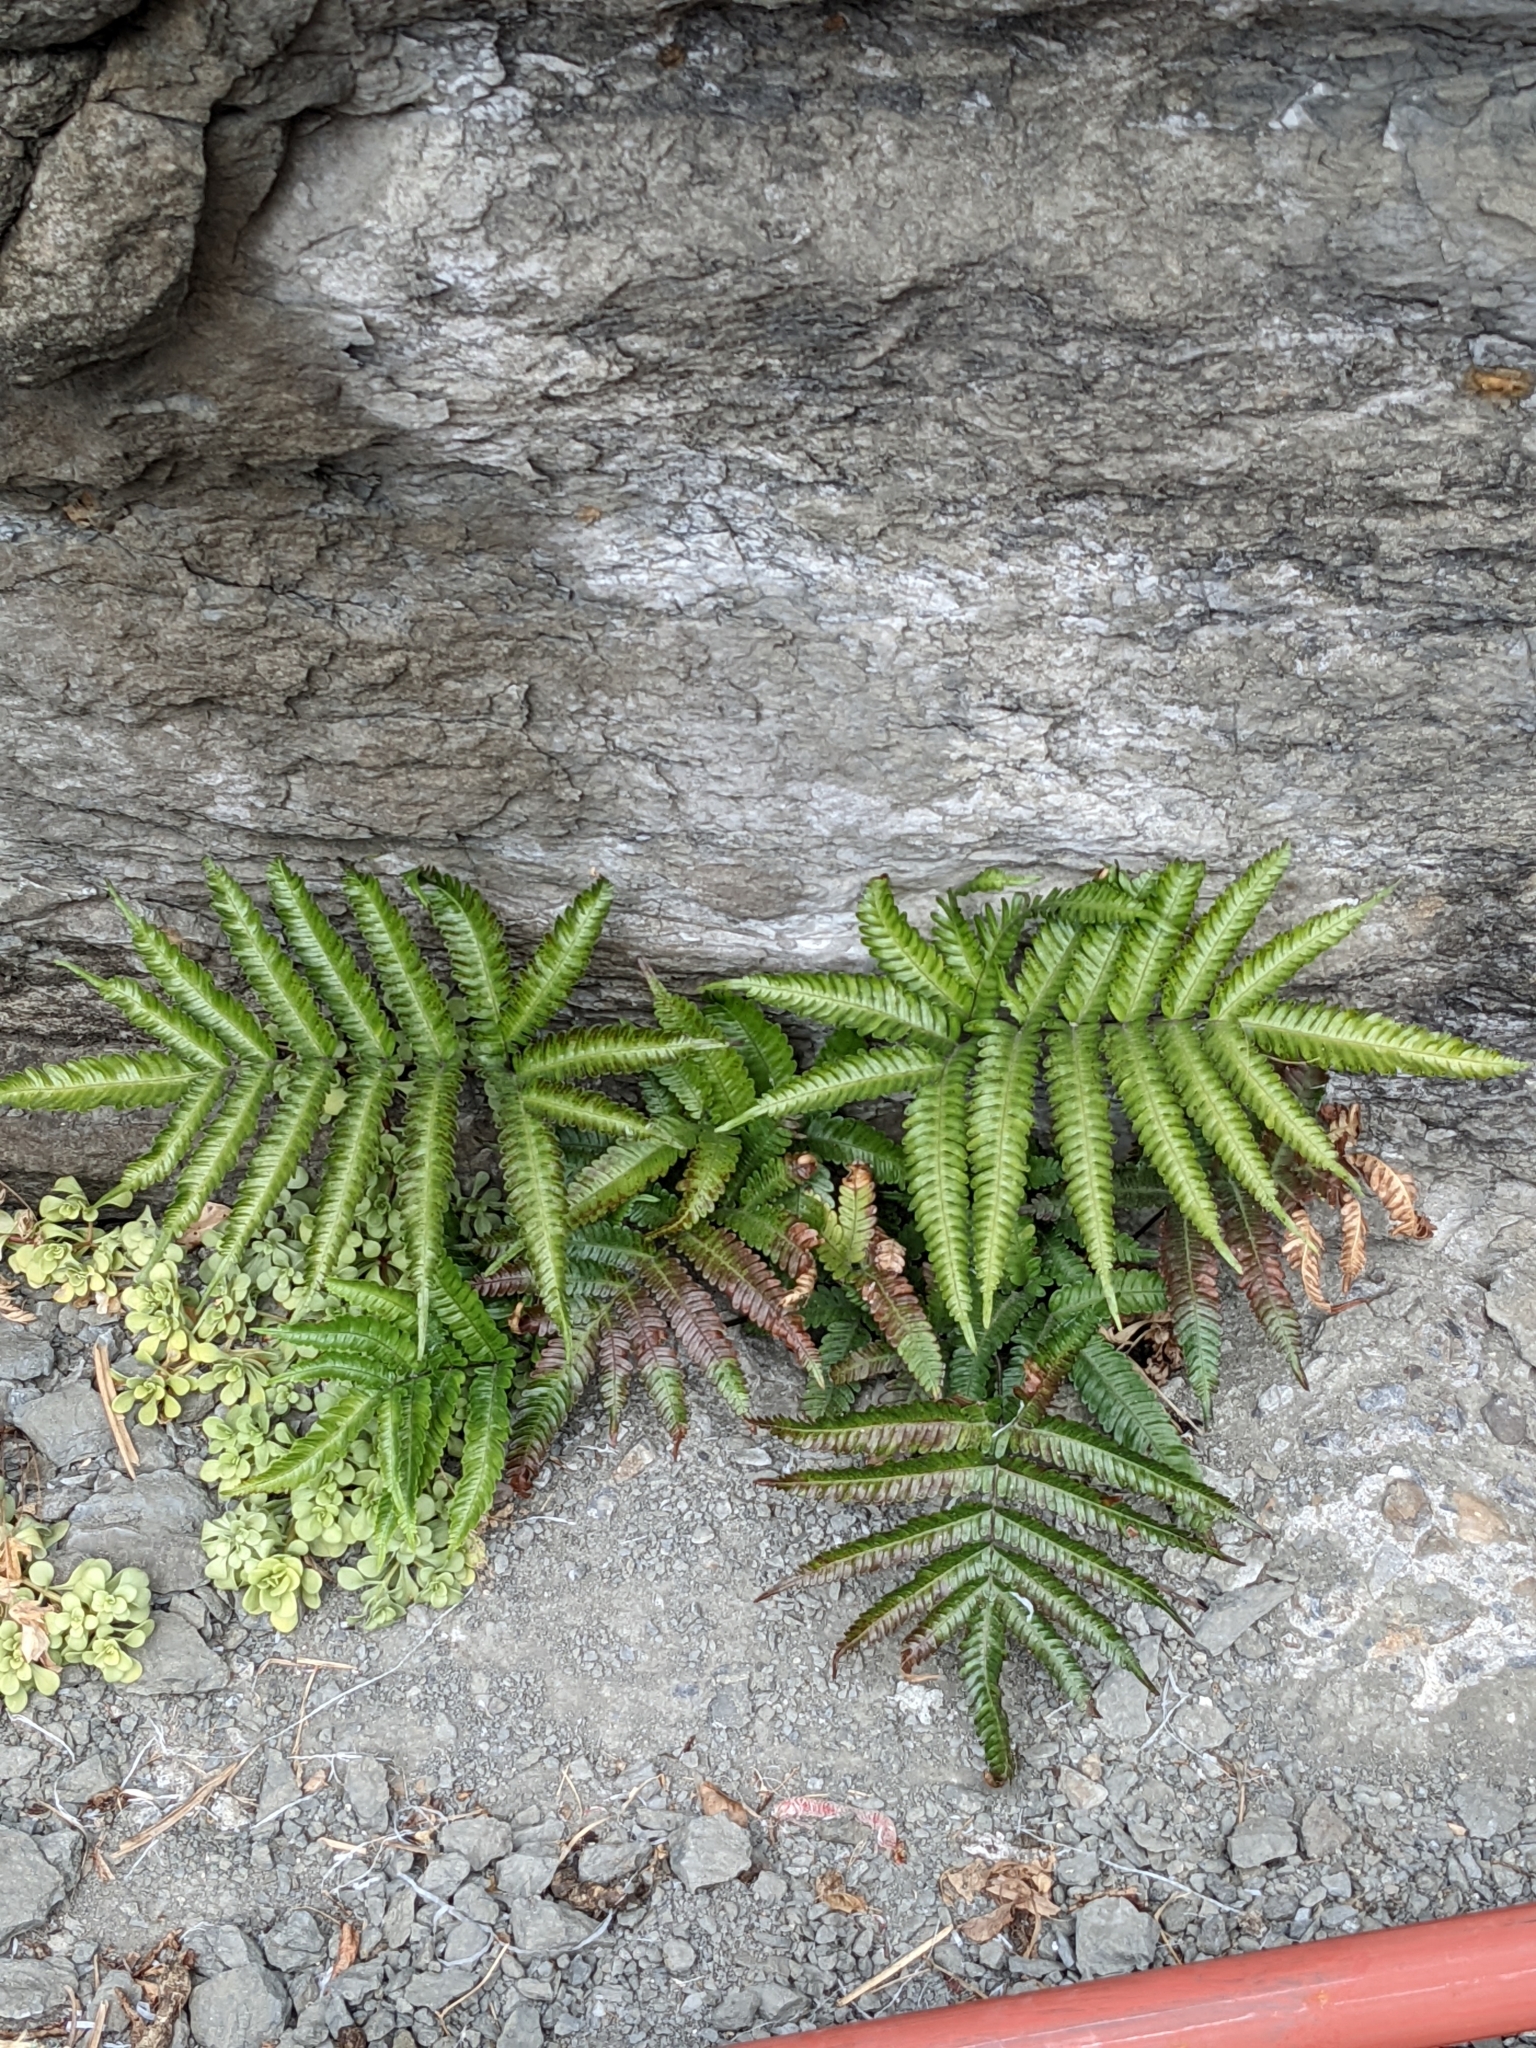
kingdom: Plantae
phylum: Tracheophyta
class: Polypodiopsida
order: Polypodiales
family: Pteridaceae
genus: Pteris
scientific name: Pteris minor
